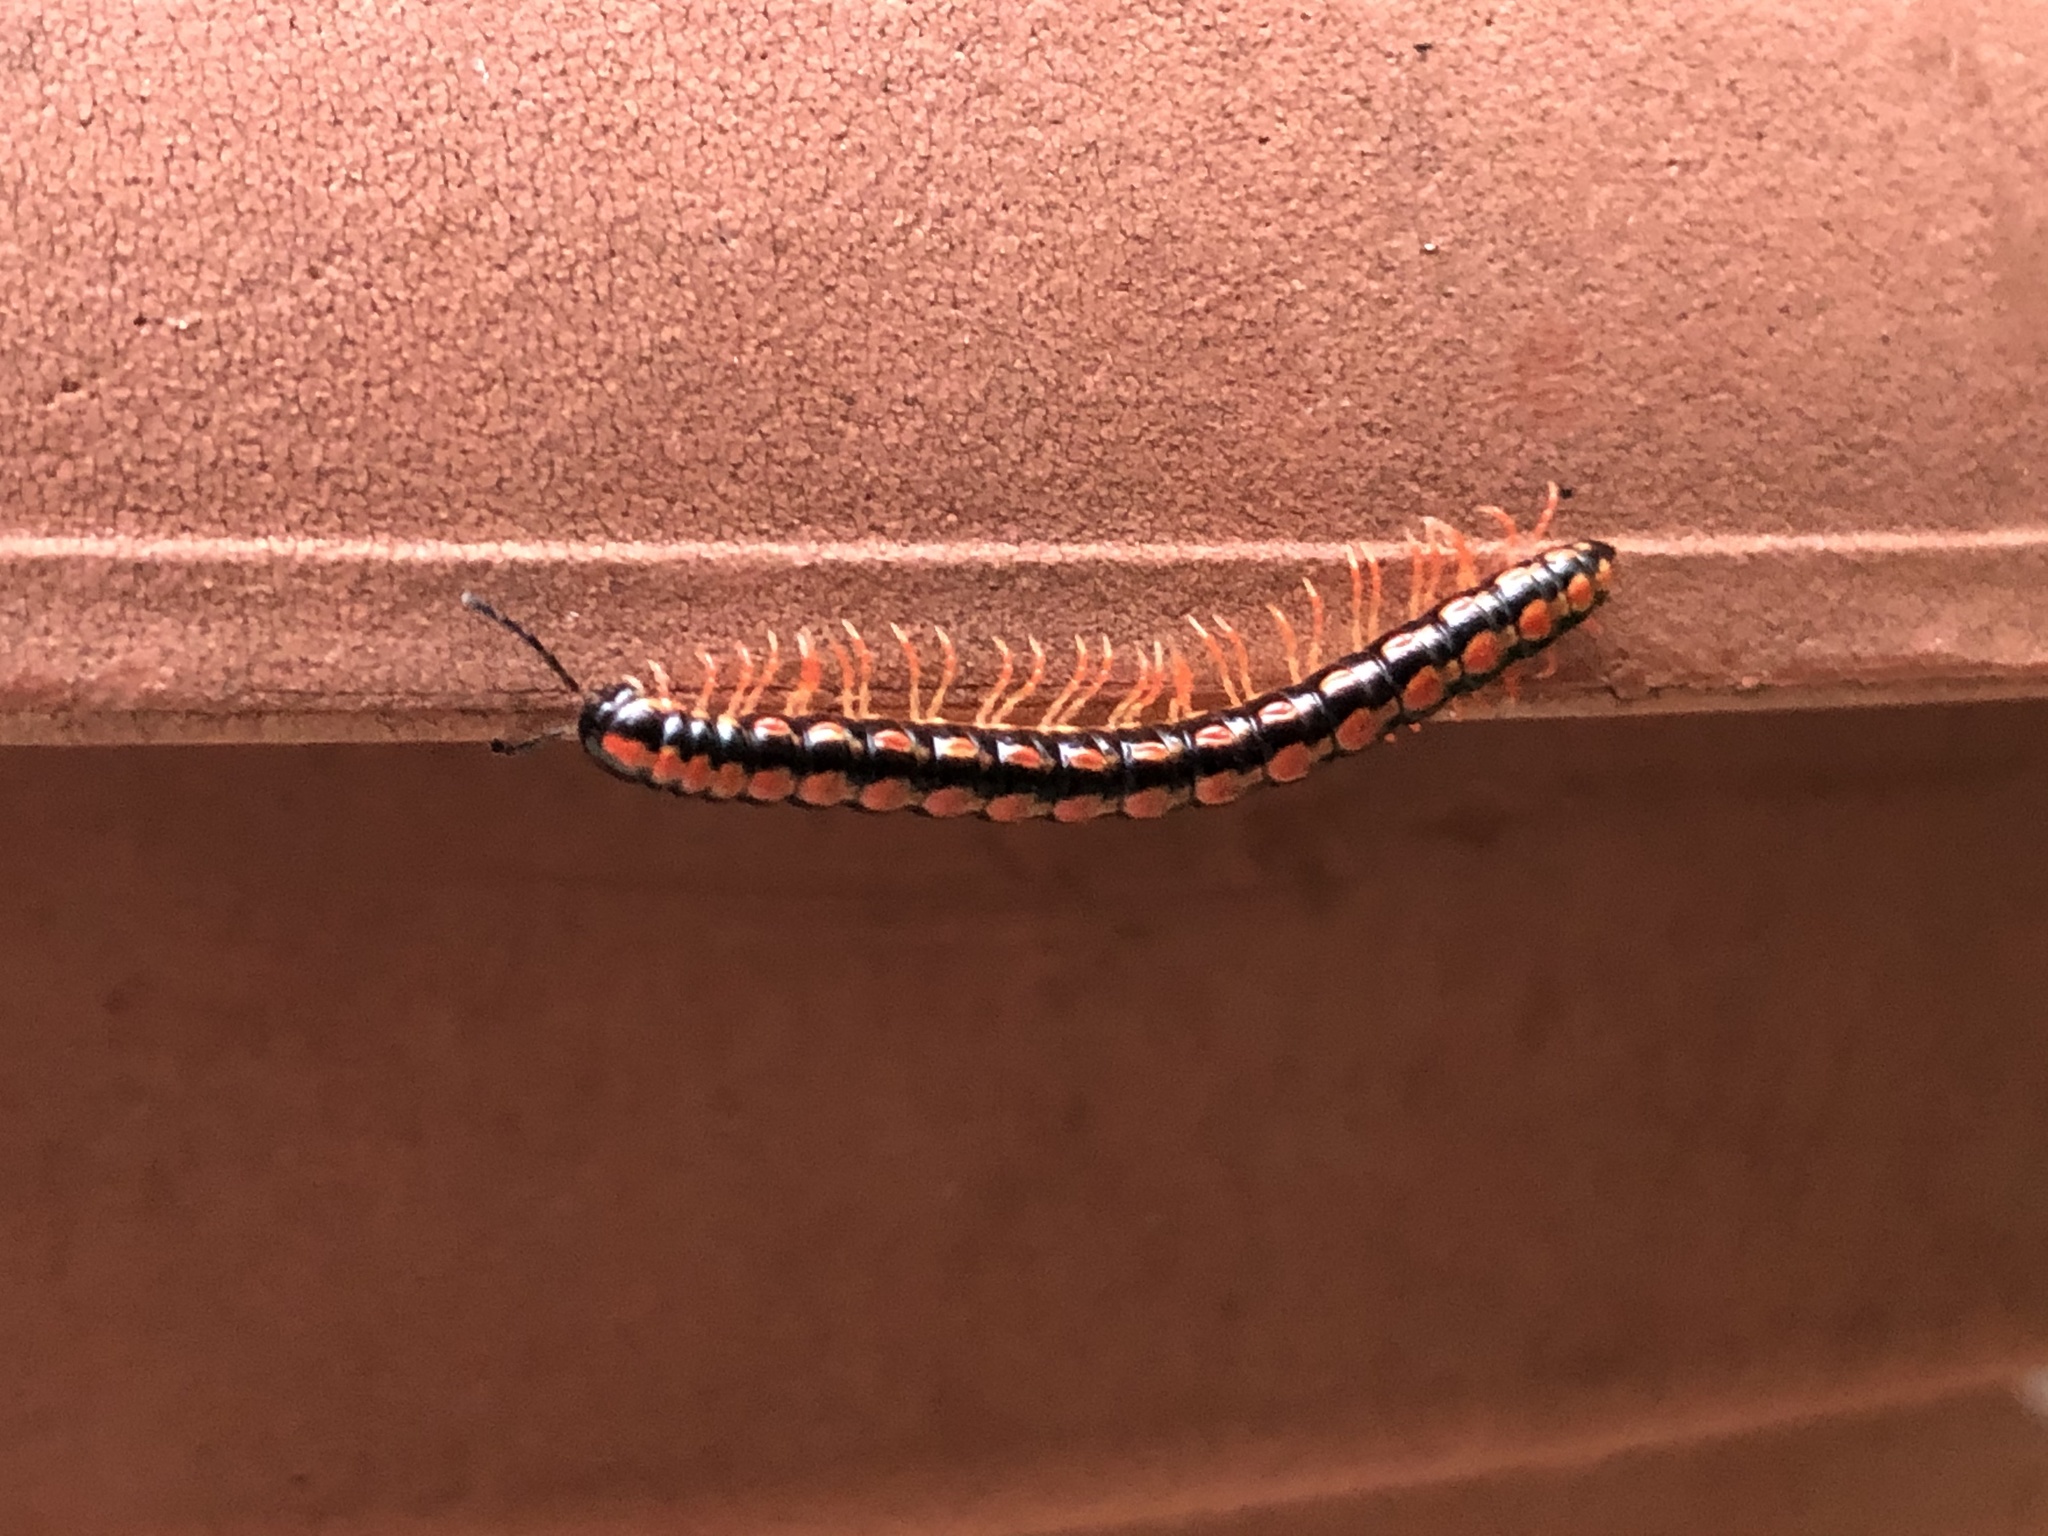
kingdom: Animalia
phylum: Arthropoda
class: Diplopoda
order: Polydesmida
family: Paradoxosomatidae
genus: Helicorthomorpha
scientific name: Helicorthomorpha holstii
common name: Millipede
